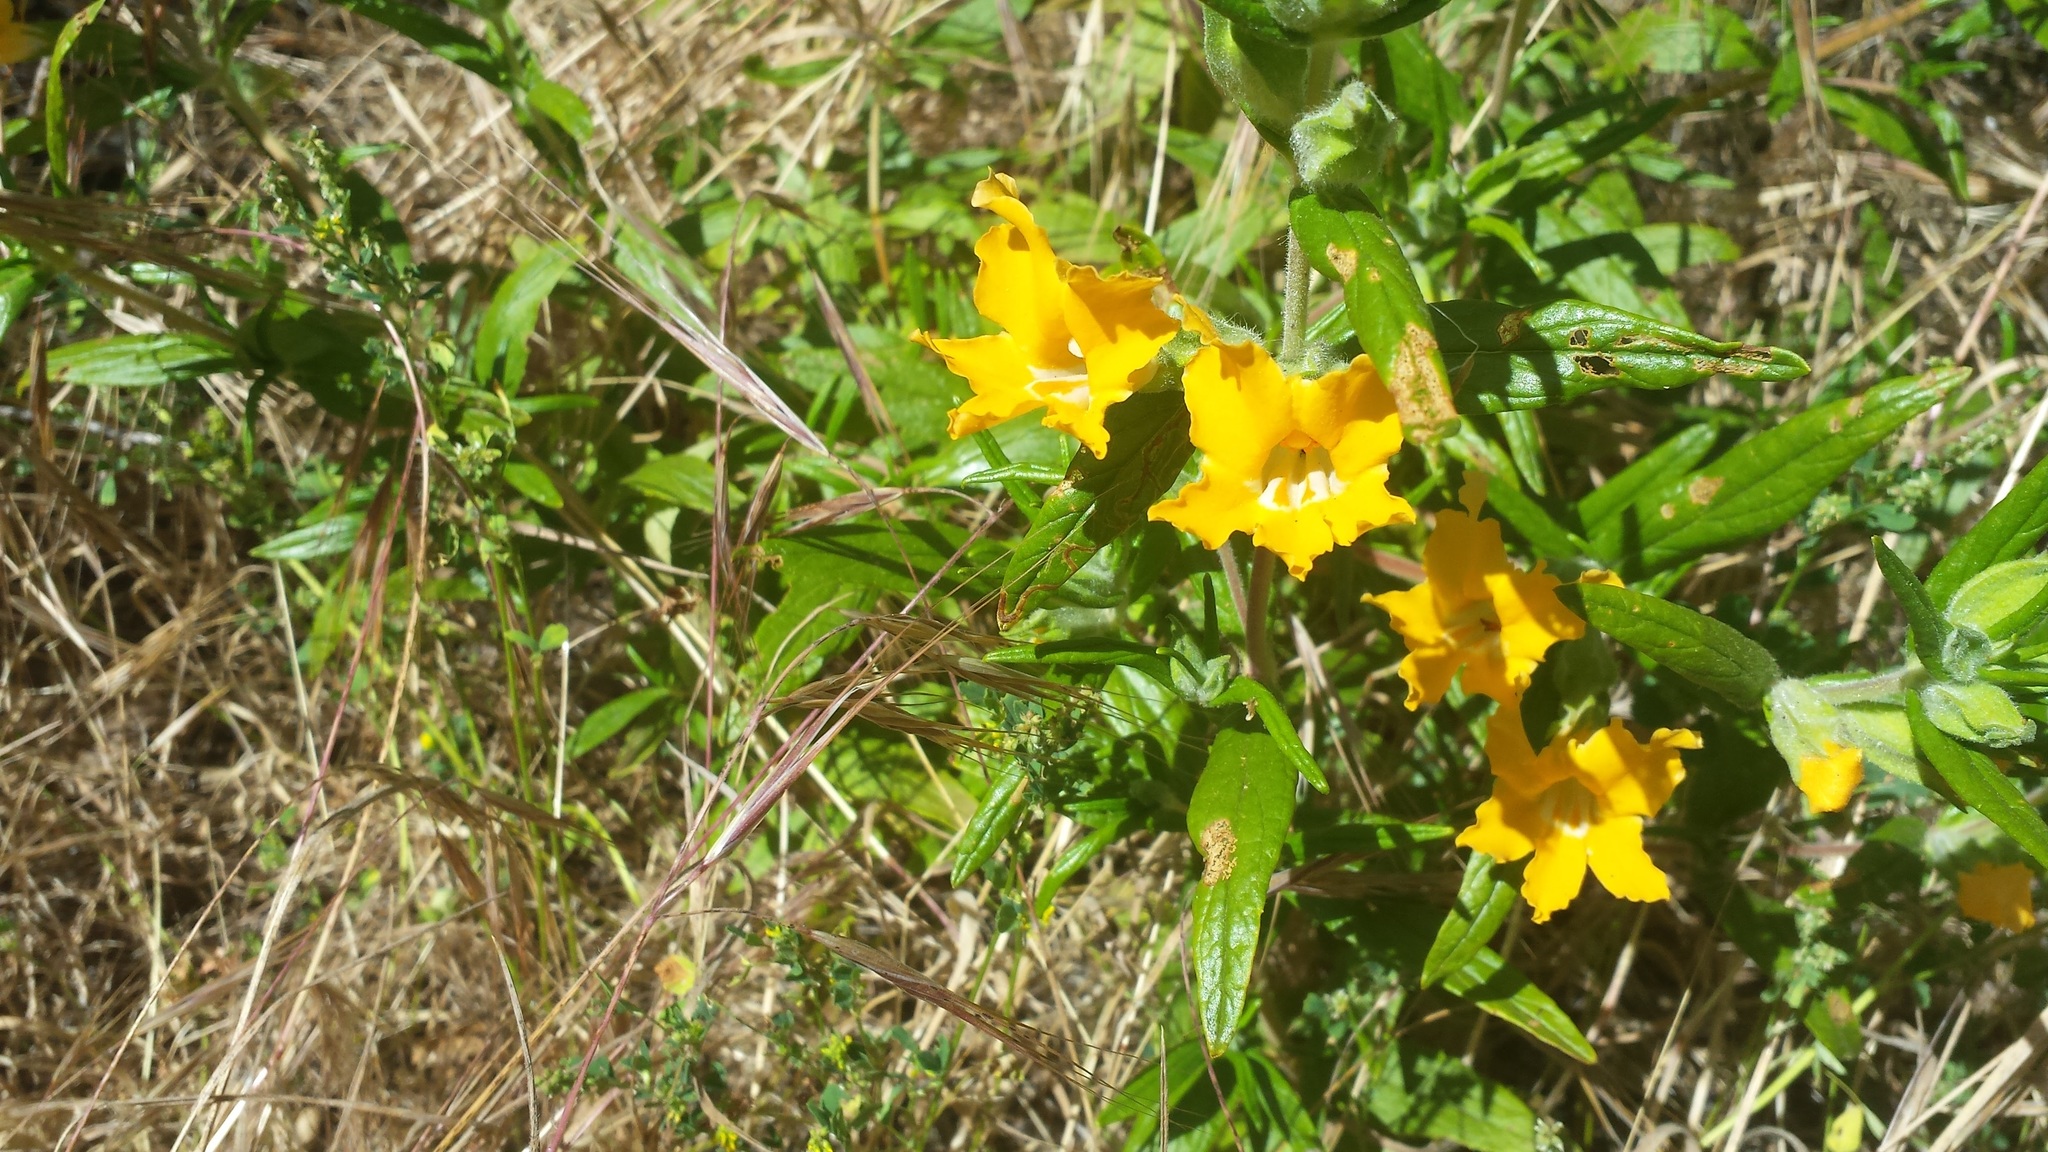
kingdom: Plantae
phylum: Tracheophyta
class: Magnoliopsida
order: Lamiales
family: Phrymaceae
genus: Diplacus
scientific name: Diplacus longiflorus
